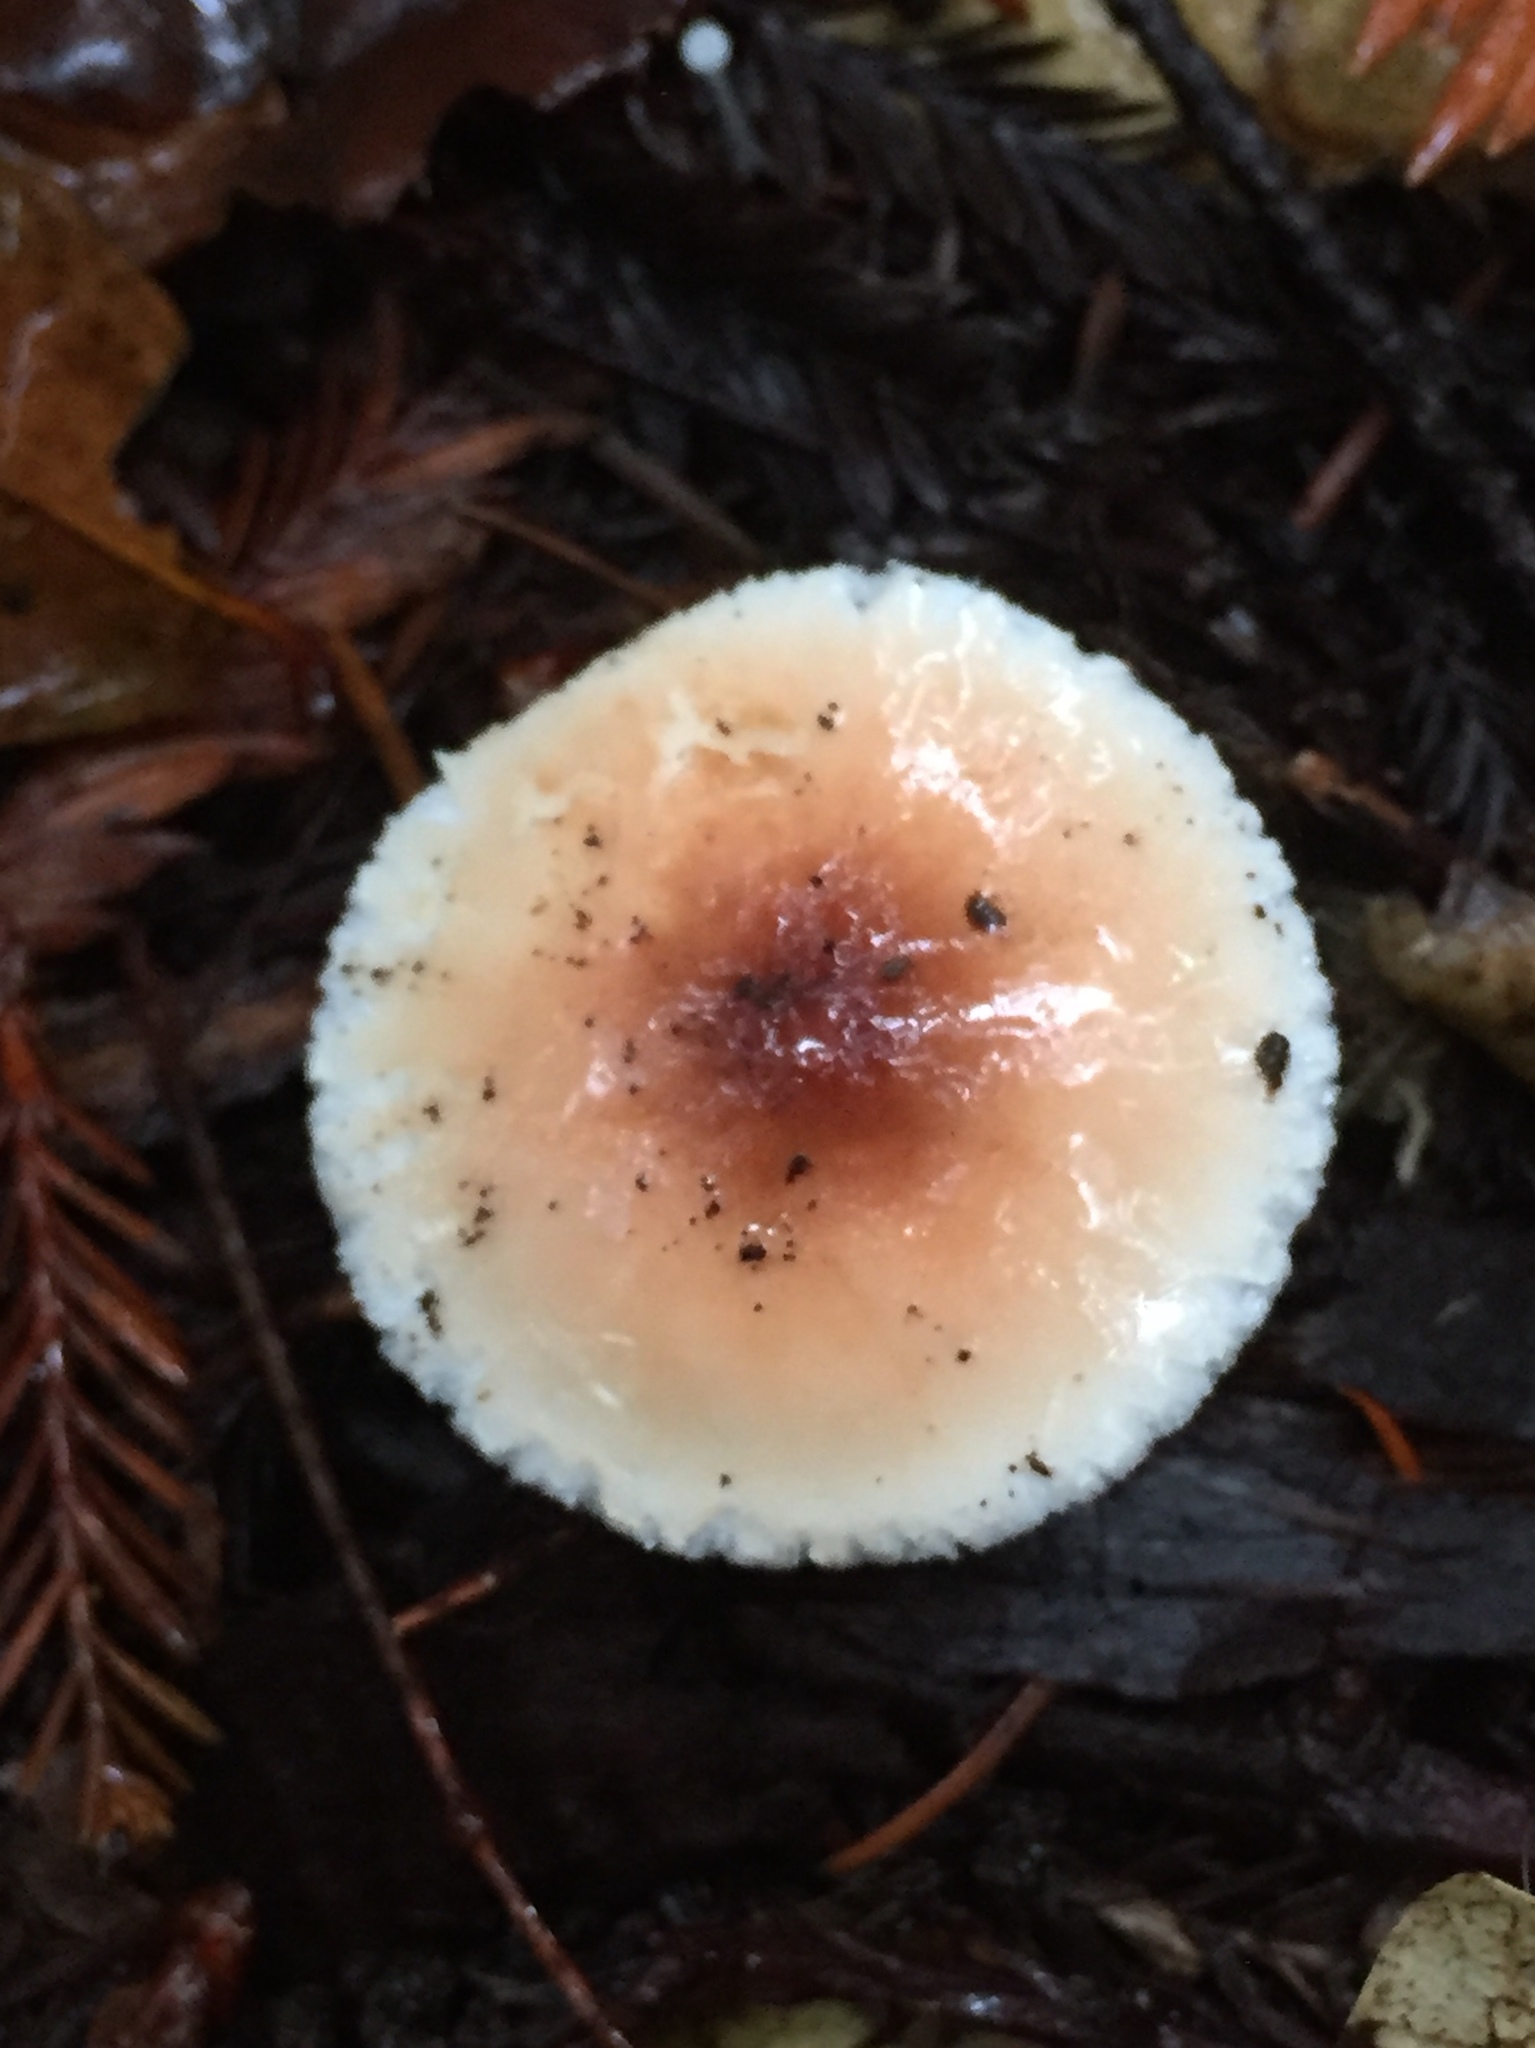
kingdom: Fungi
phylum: Basidiomycota
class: Agaricomycetes
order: Agaricales
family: Agaricaceae
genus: Lepiota
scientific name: Lepiota rubrotinctoides
